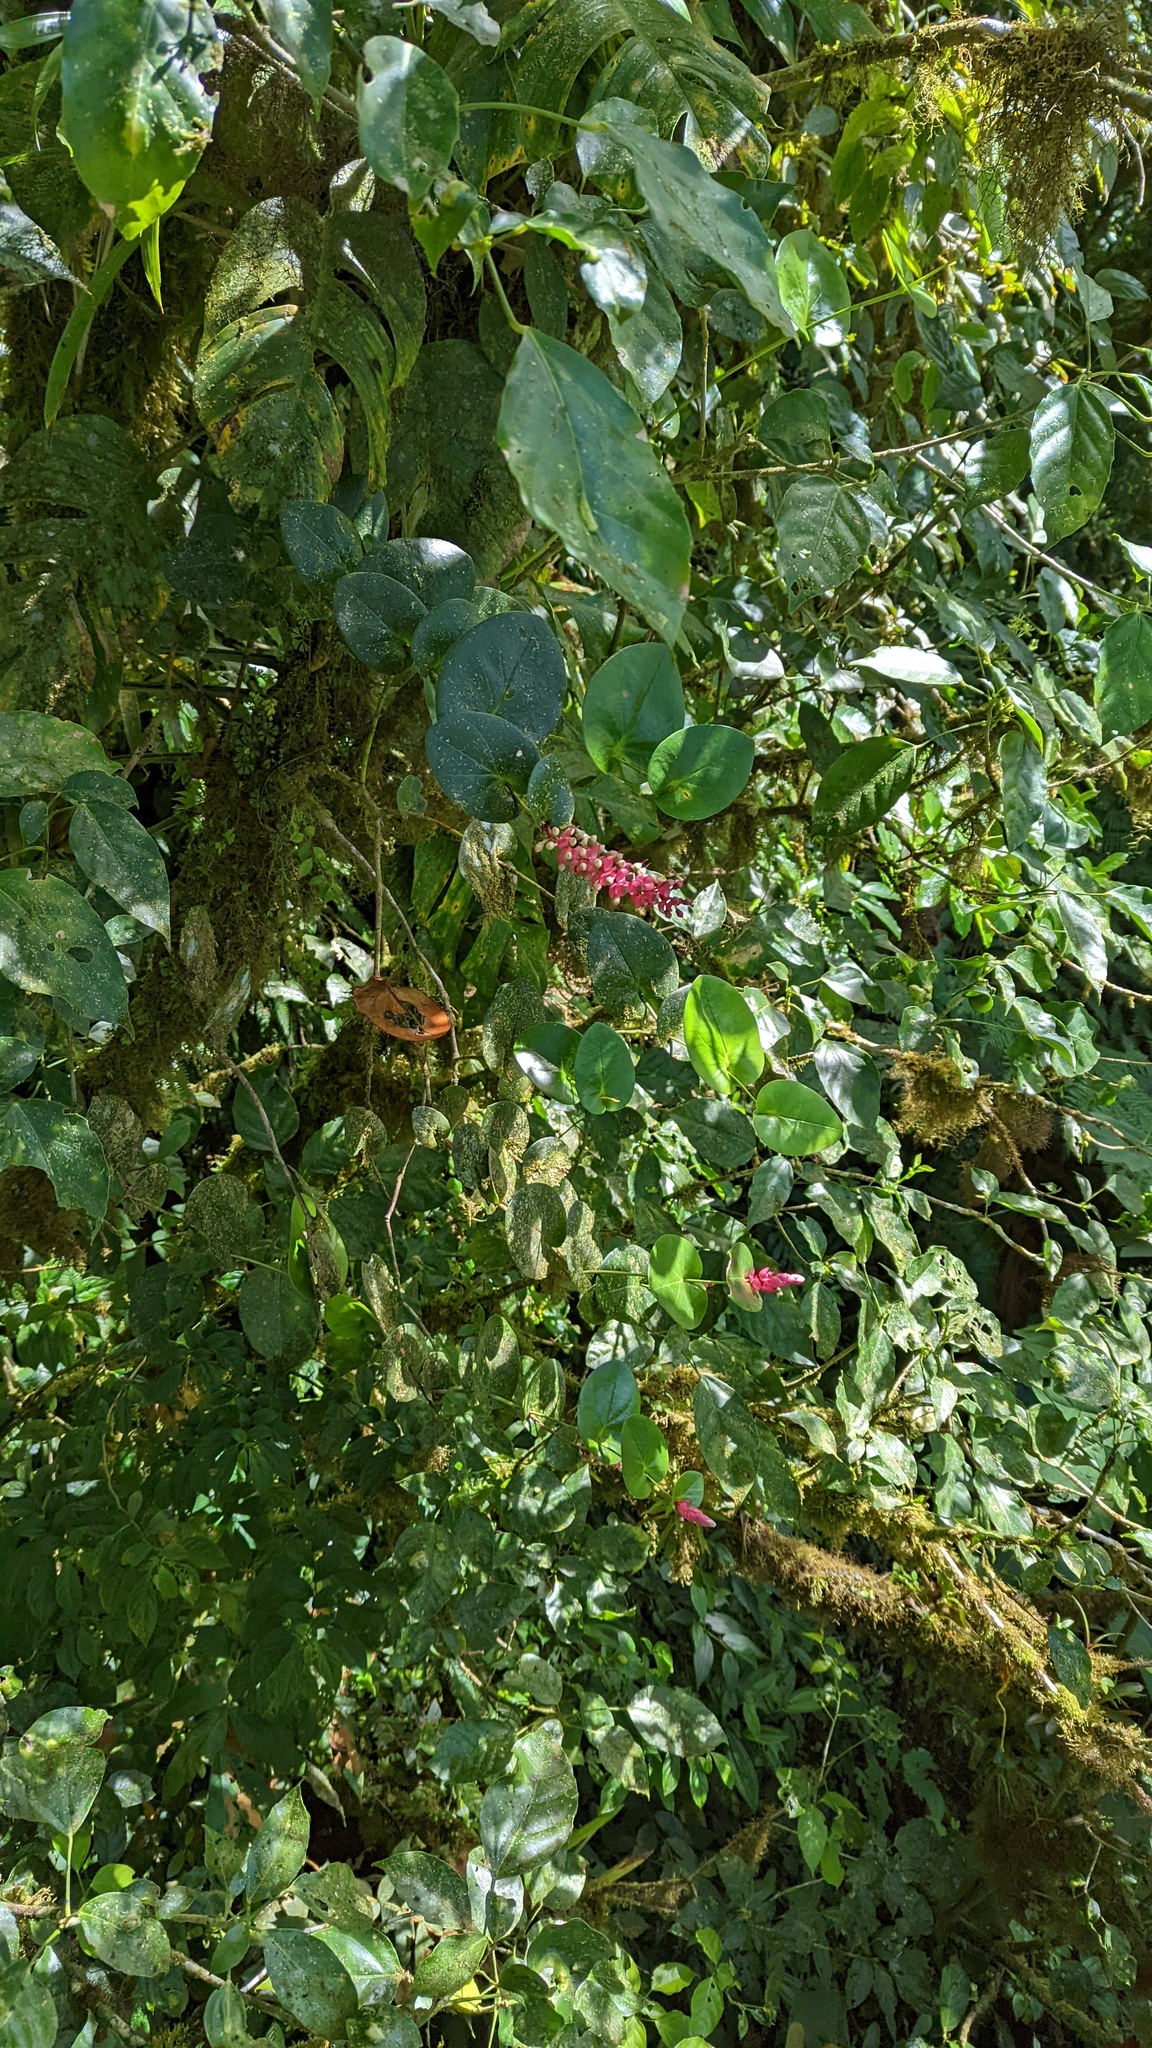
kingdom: Plantae
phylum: Tracheophyta
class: Magnoliopsida
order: Ericales
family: Ericaceae
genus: Cavendishia
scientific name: Cavendishia complectens
